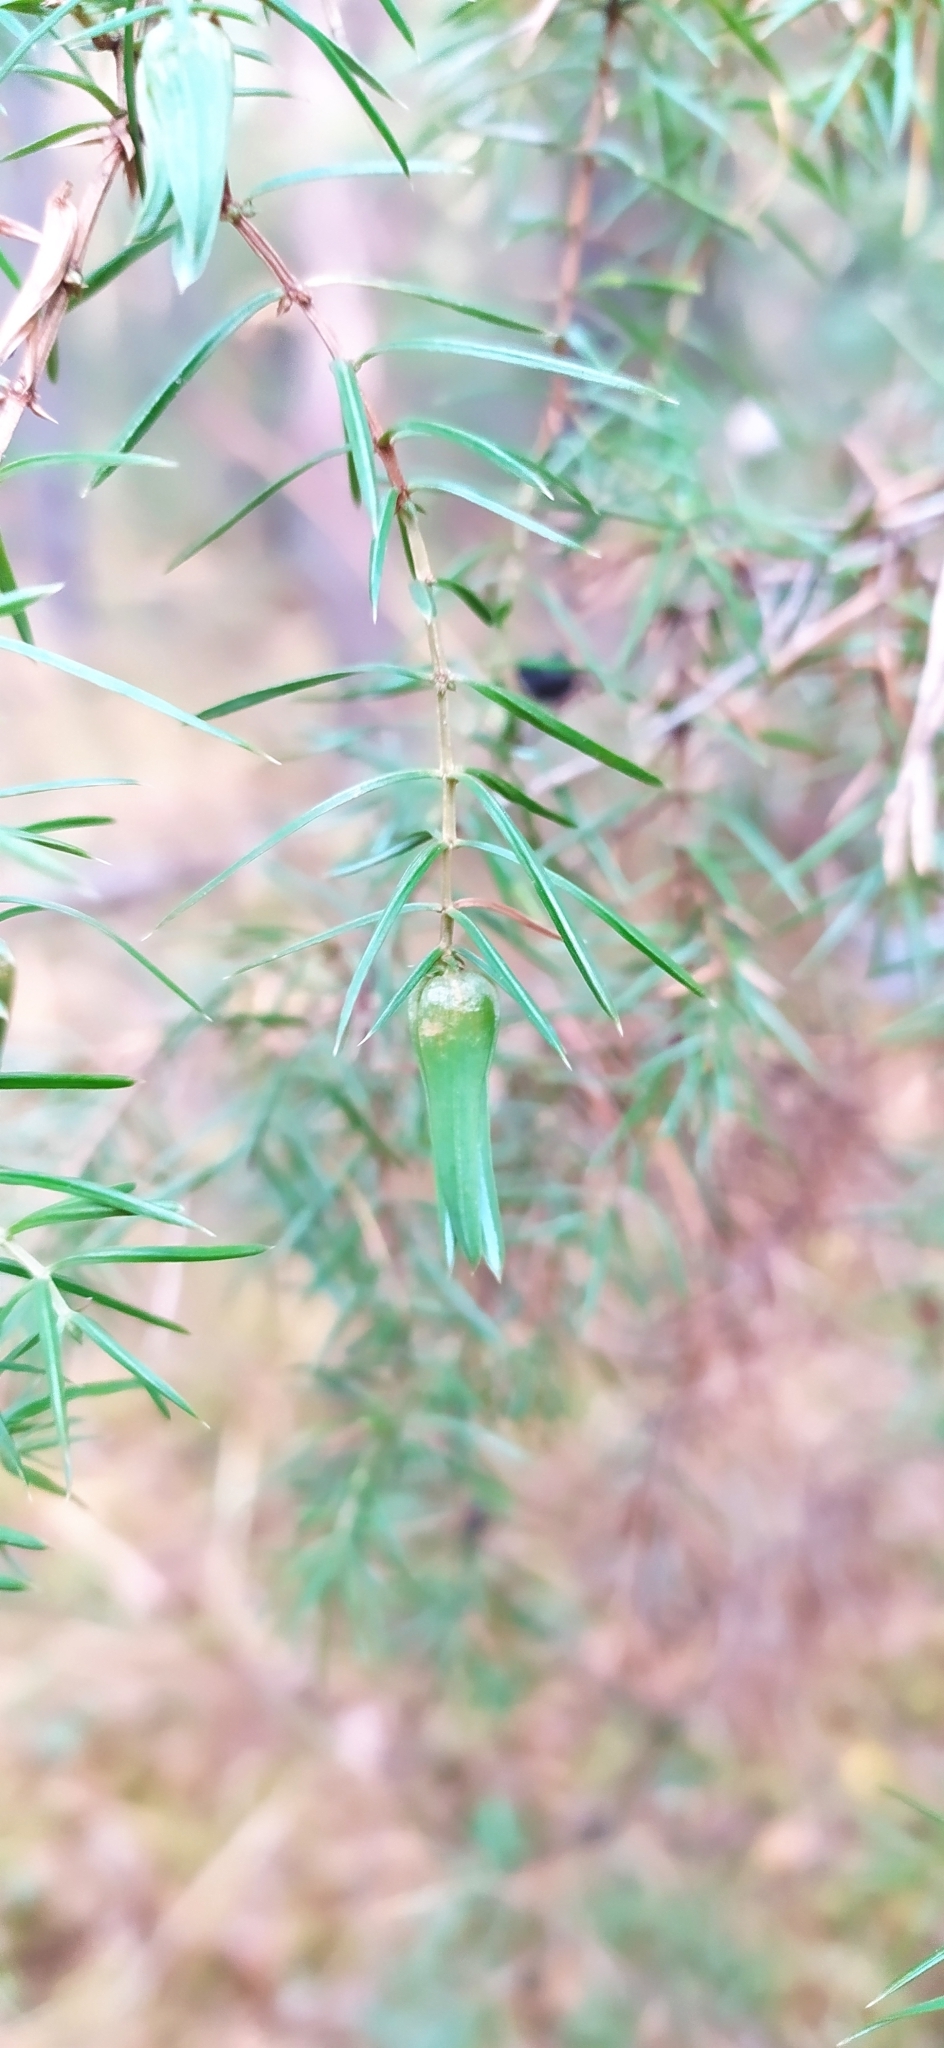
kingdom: Plantae
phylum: Tracheophyta
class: Pinopsida
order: Pinales
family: Cupressaceae
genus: Juniperus
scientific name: Juniperus communis
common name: Common juniper
